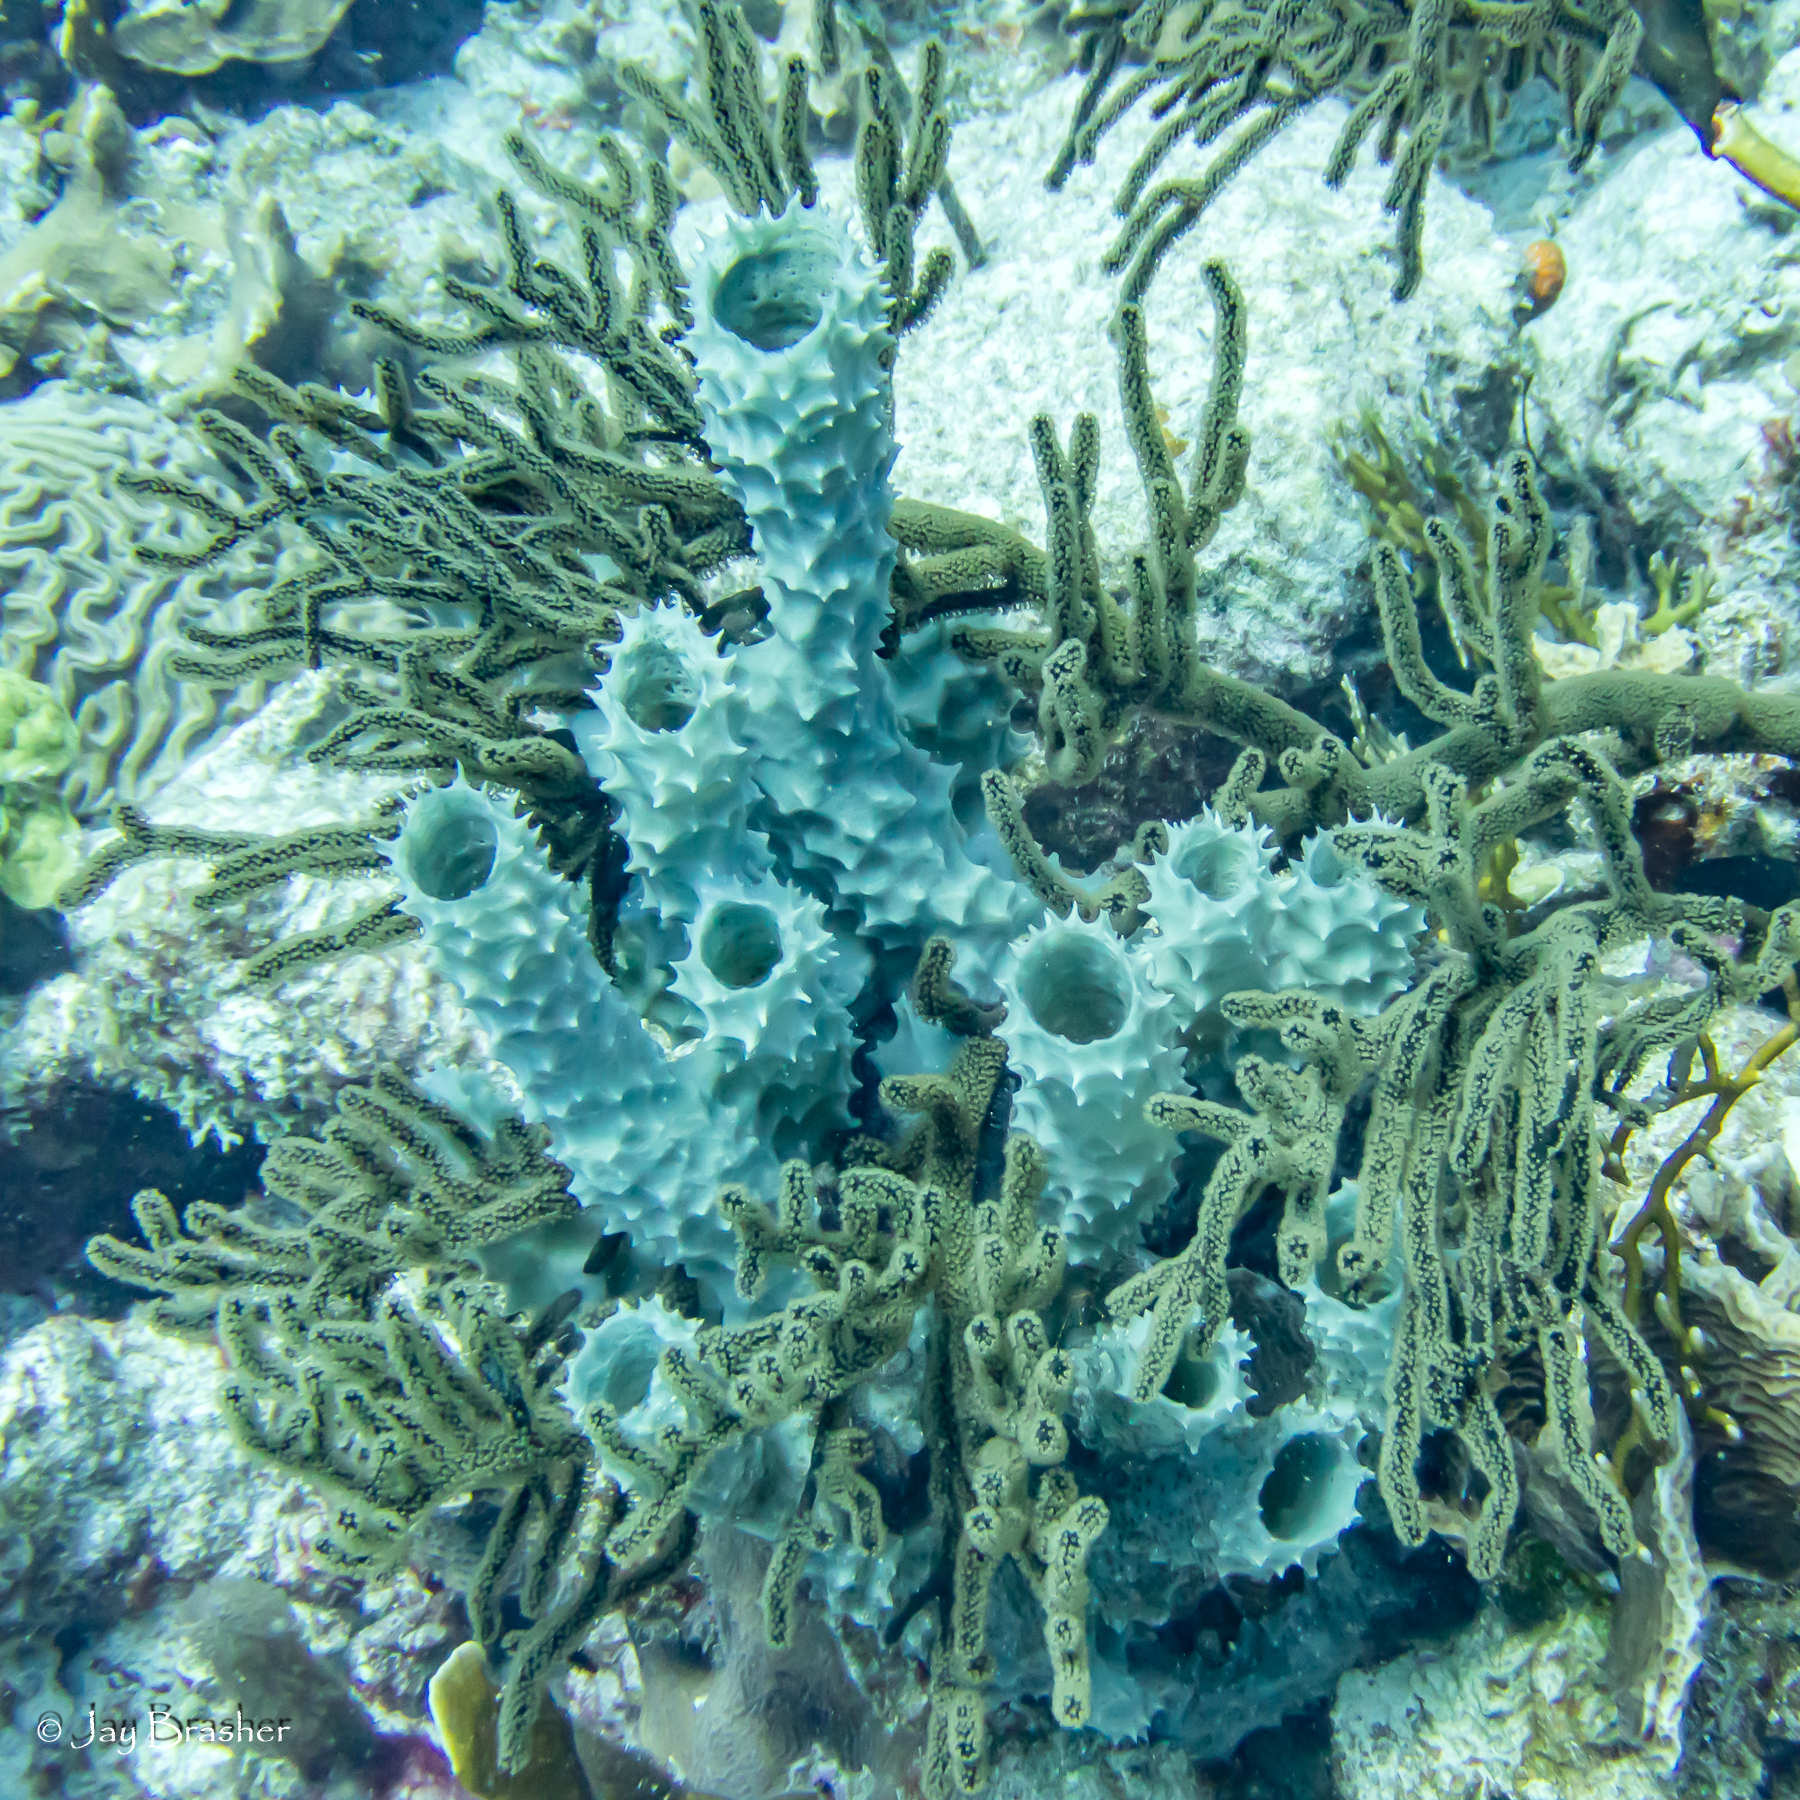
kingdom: Animalia
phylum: Porifera
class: Demospongiae
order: Haplosclerida
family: Callyspongiidae
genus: Callyspongia
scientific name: Callyspongia aculeata
